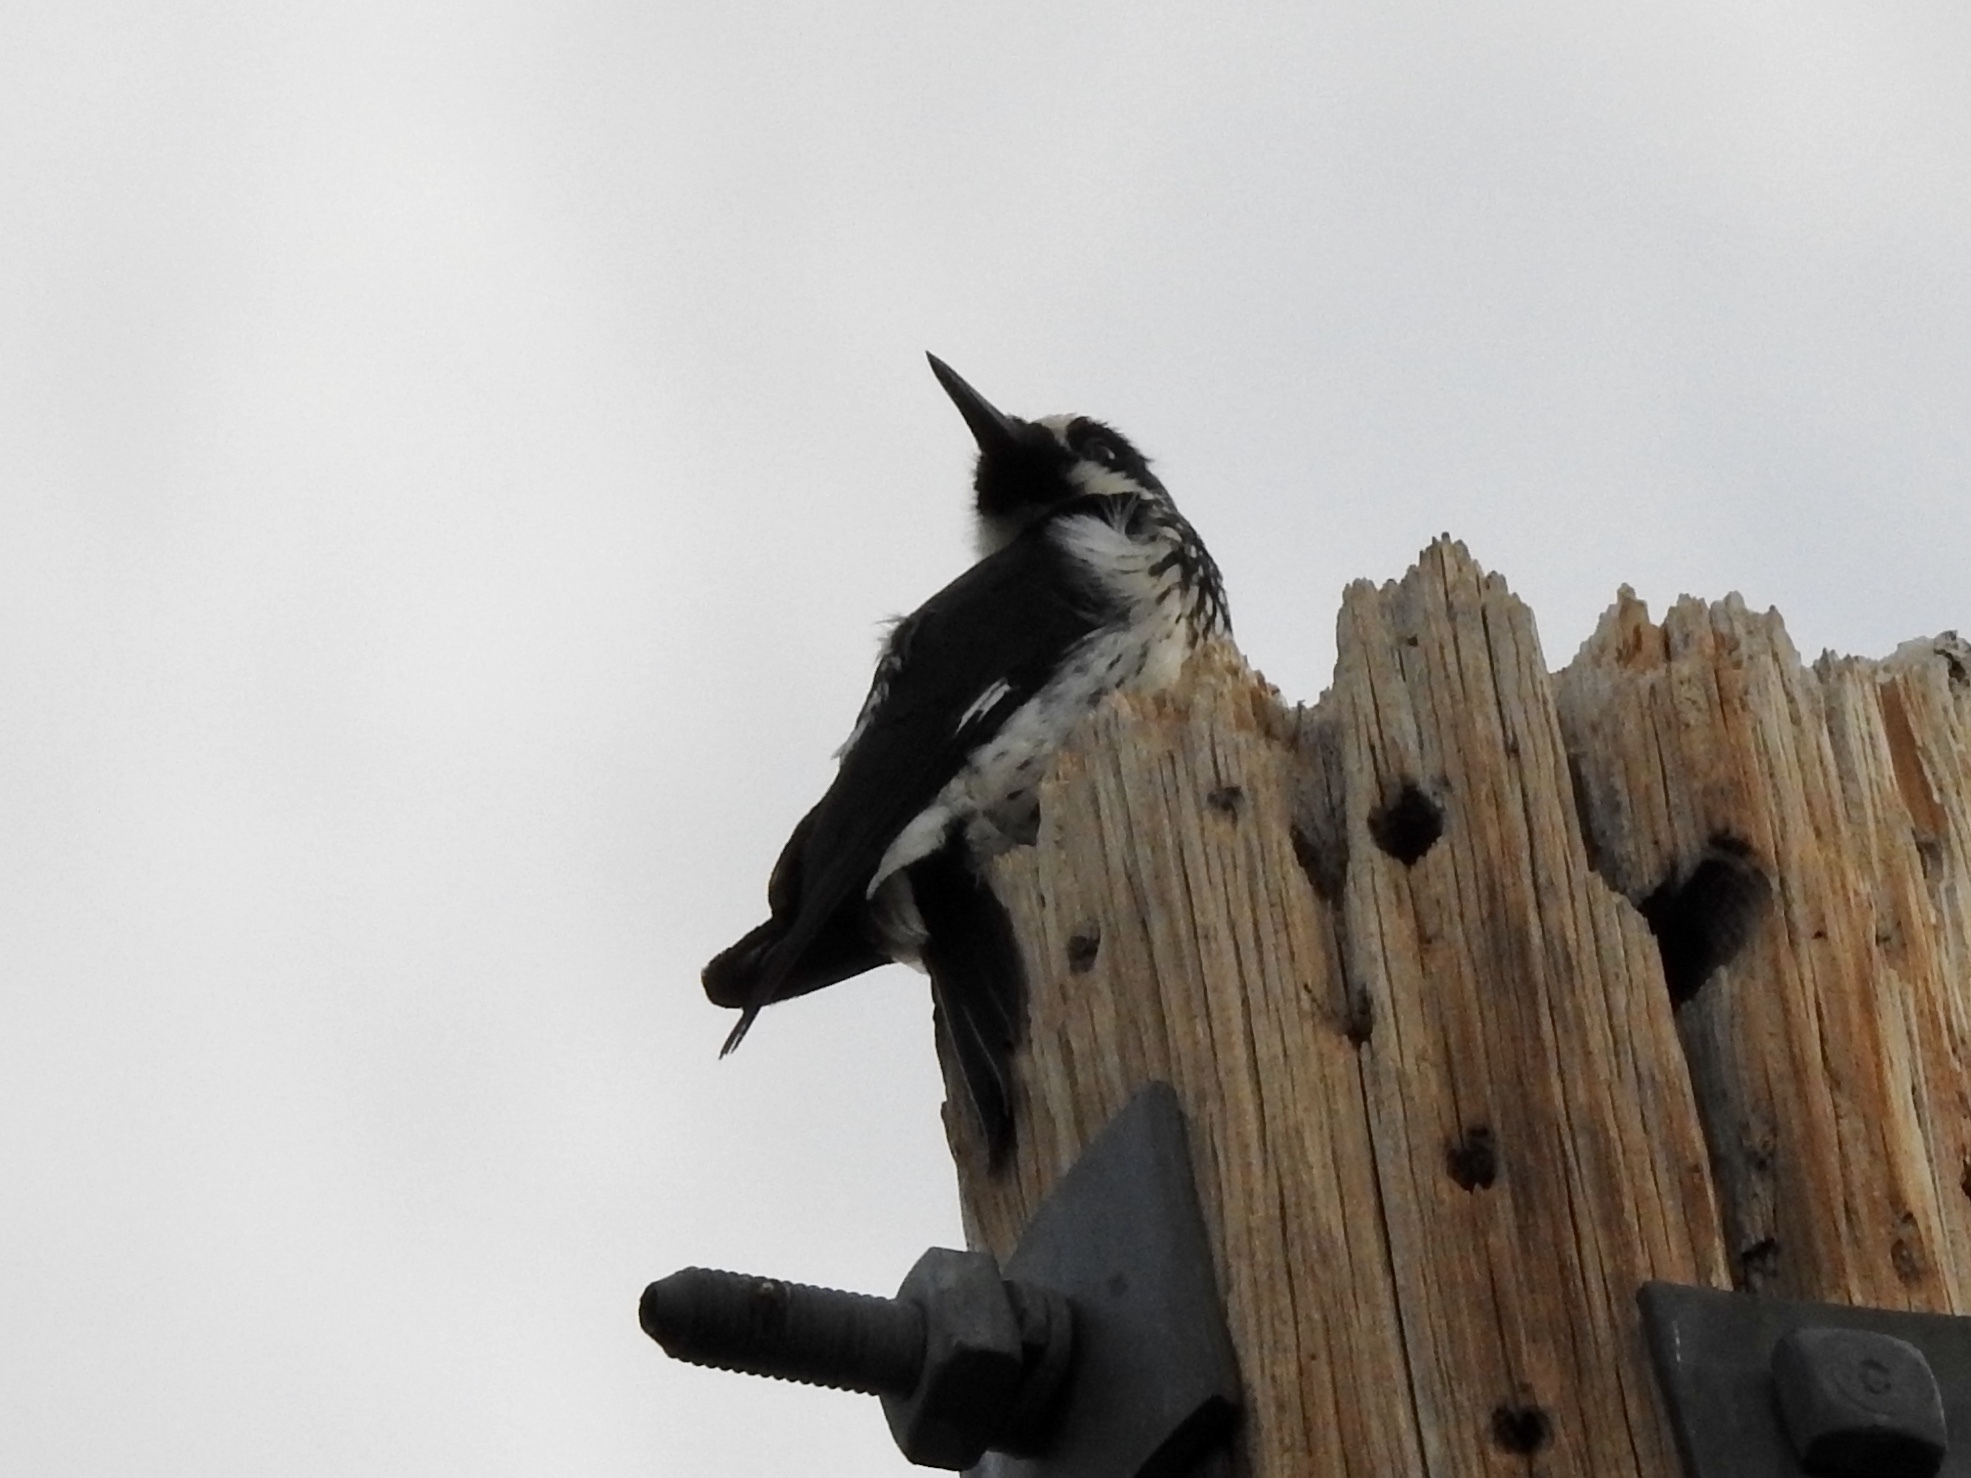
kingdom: Animalia
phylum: Chordata
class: Aves
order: Piciformes
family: Picidae
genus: Melanerpes
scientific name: Melanerpes formicivorus
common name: Acorn woodpecker
